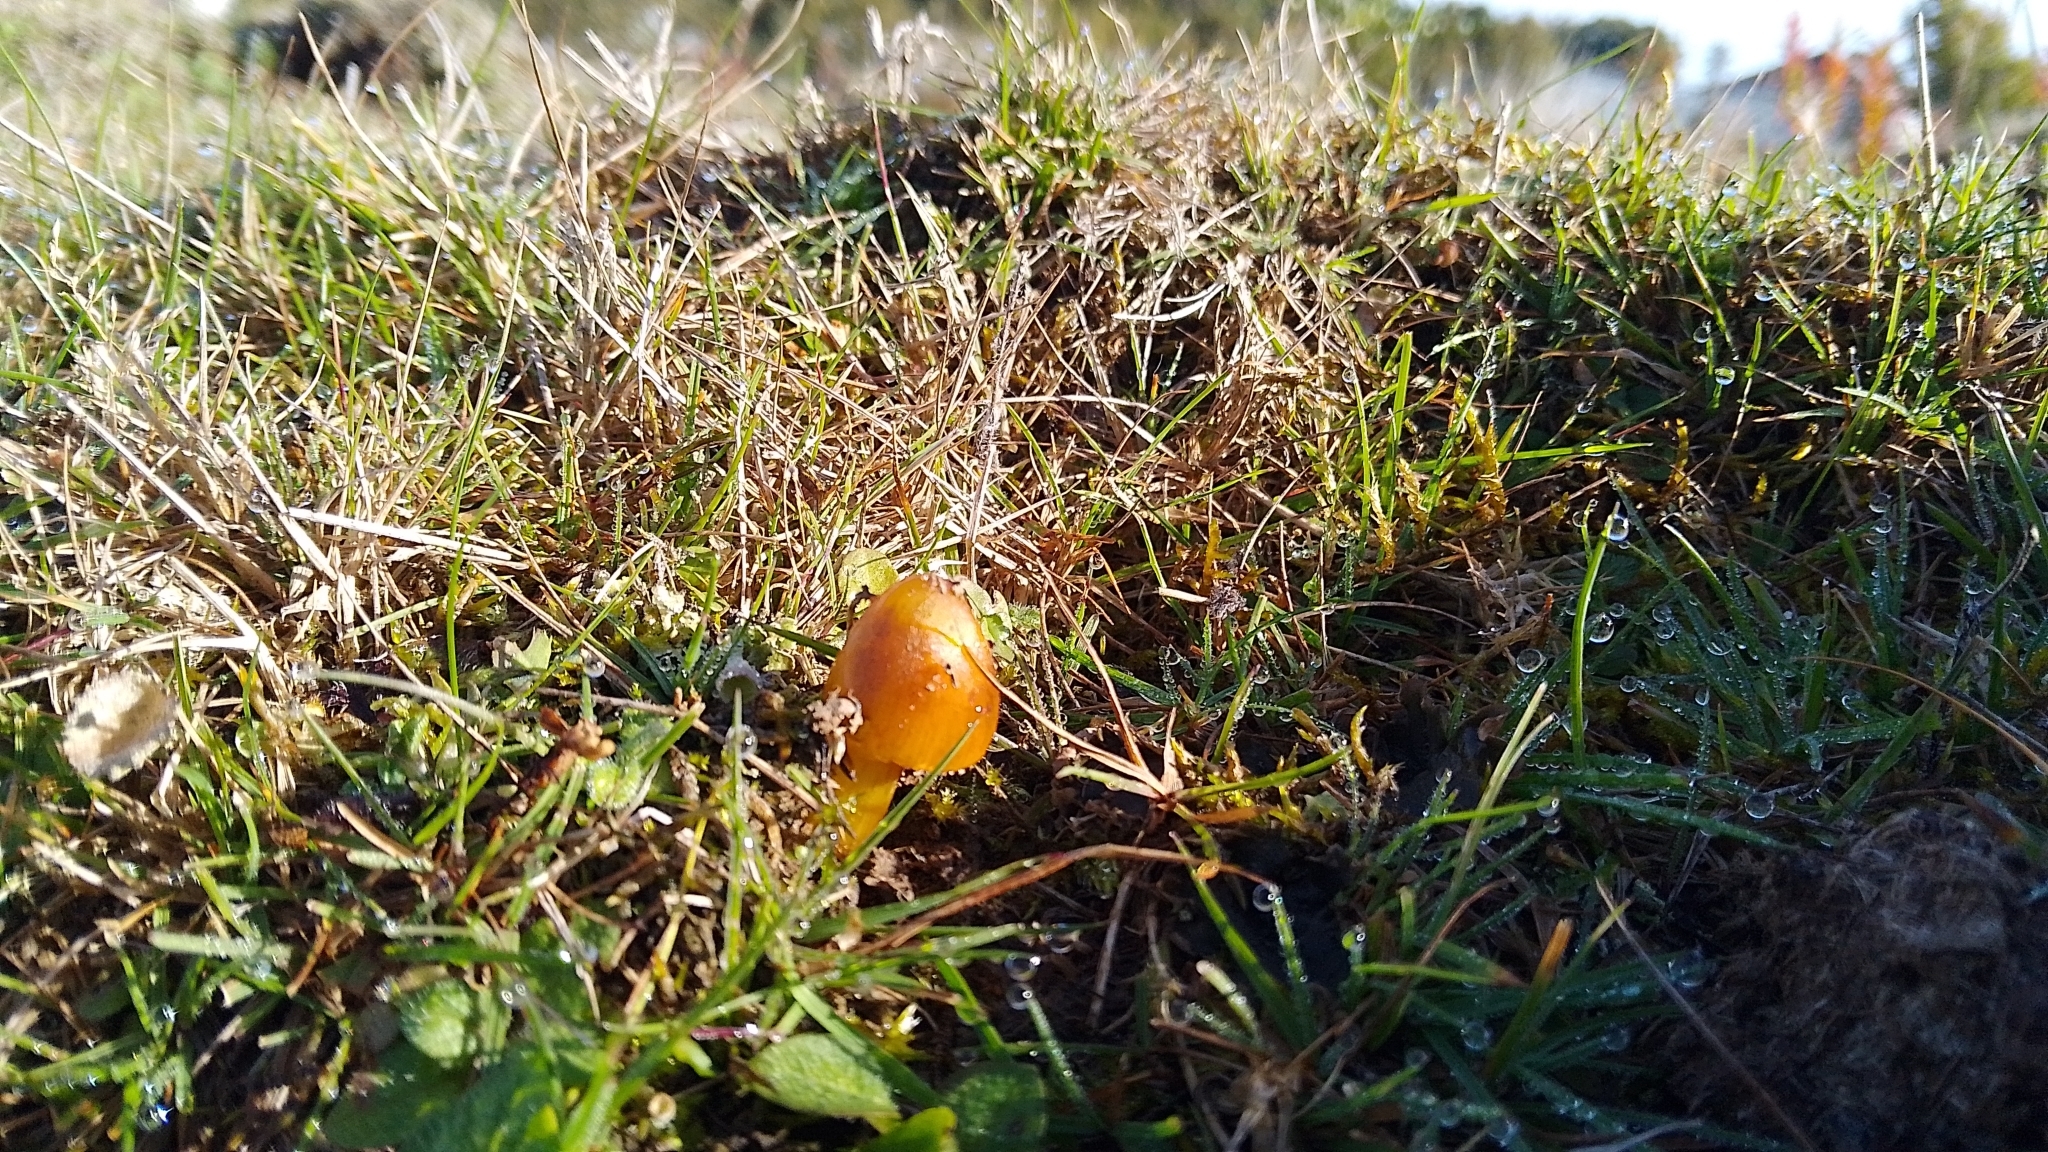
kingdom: Fungi
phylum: Basidiomycota
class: Agaricomycetes
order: Agaricales
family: Hygrophoraceae
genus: Hygrocybe
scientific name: Hygrocybe conica
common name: Blackening wax-cap
